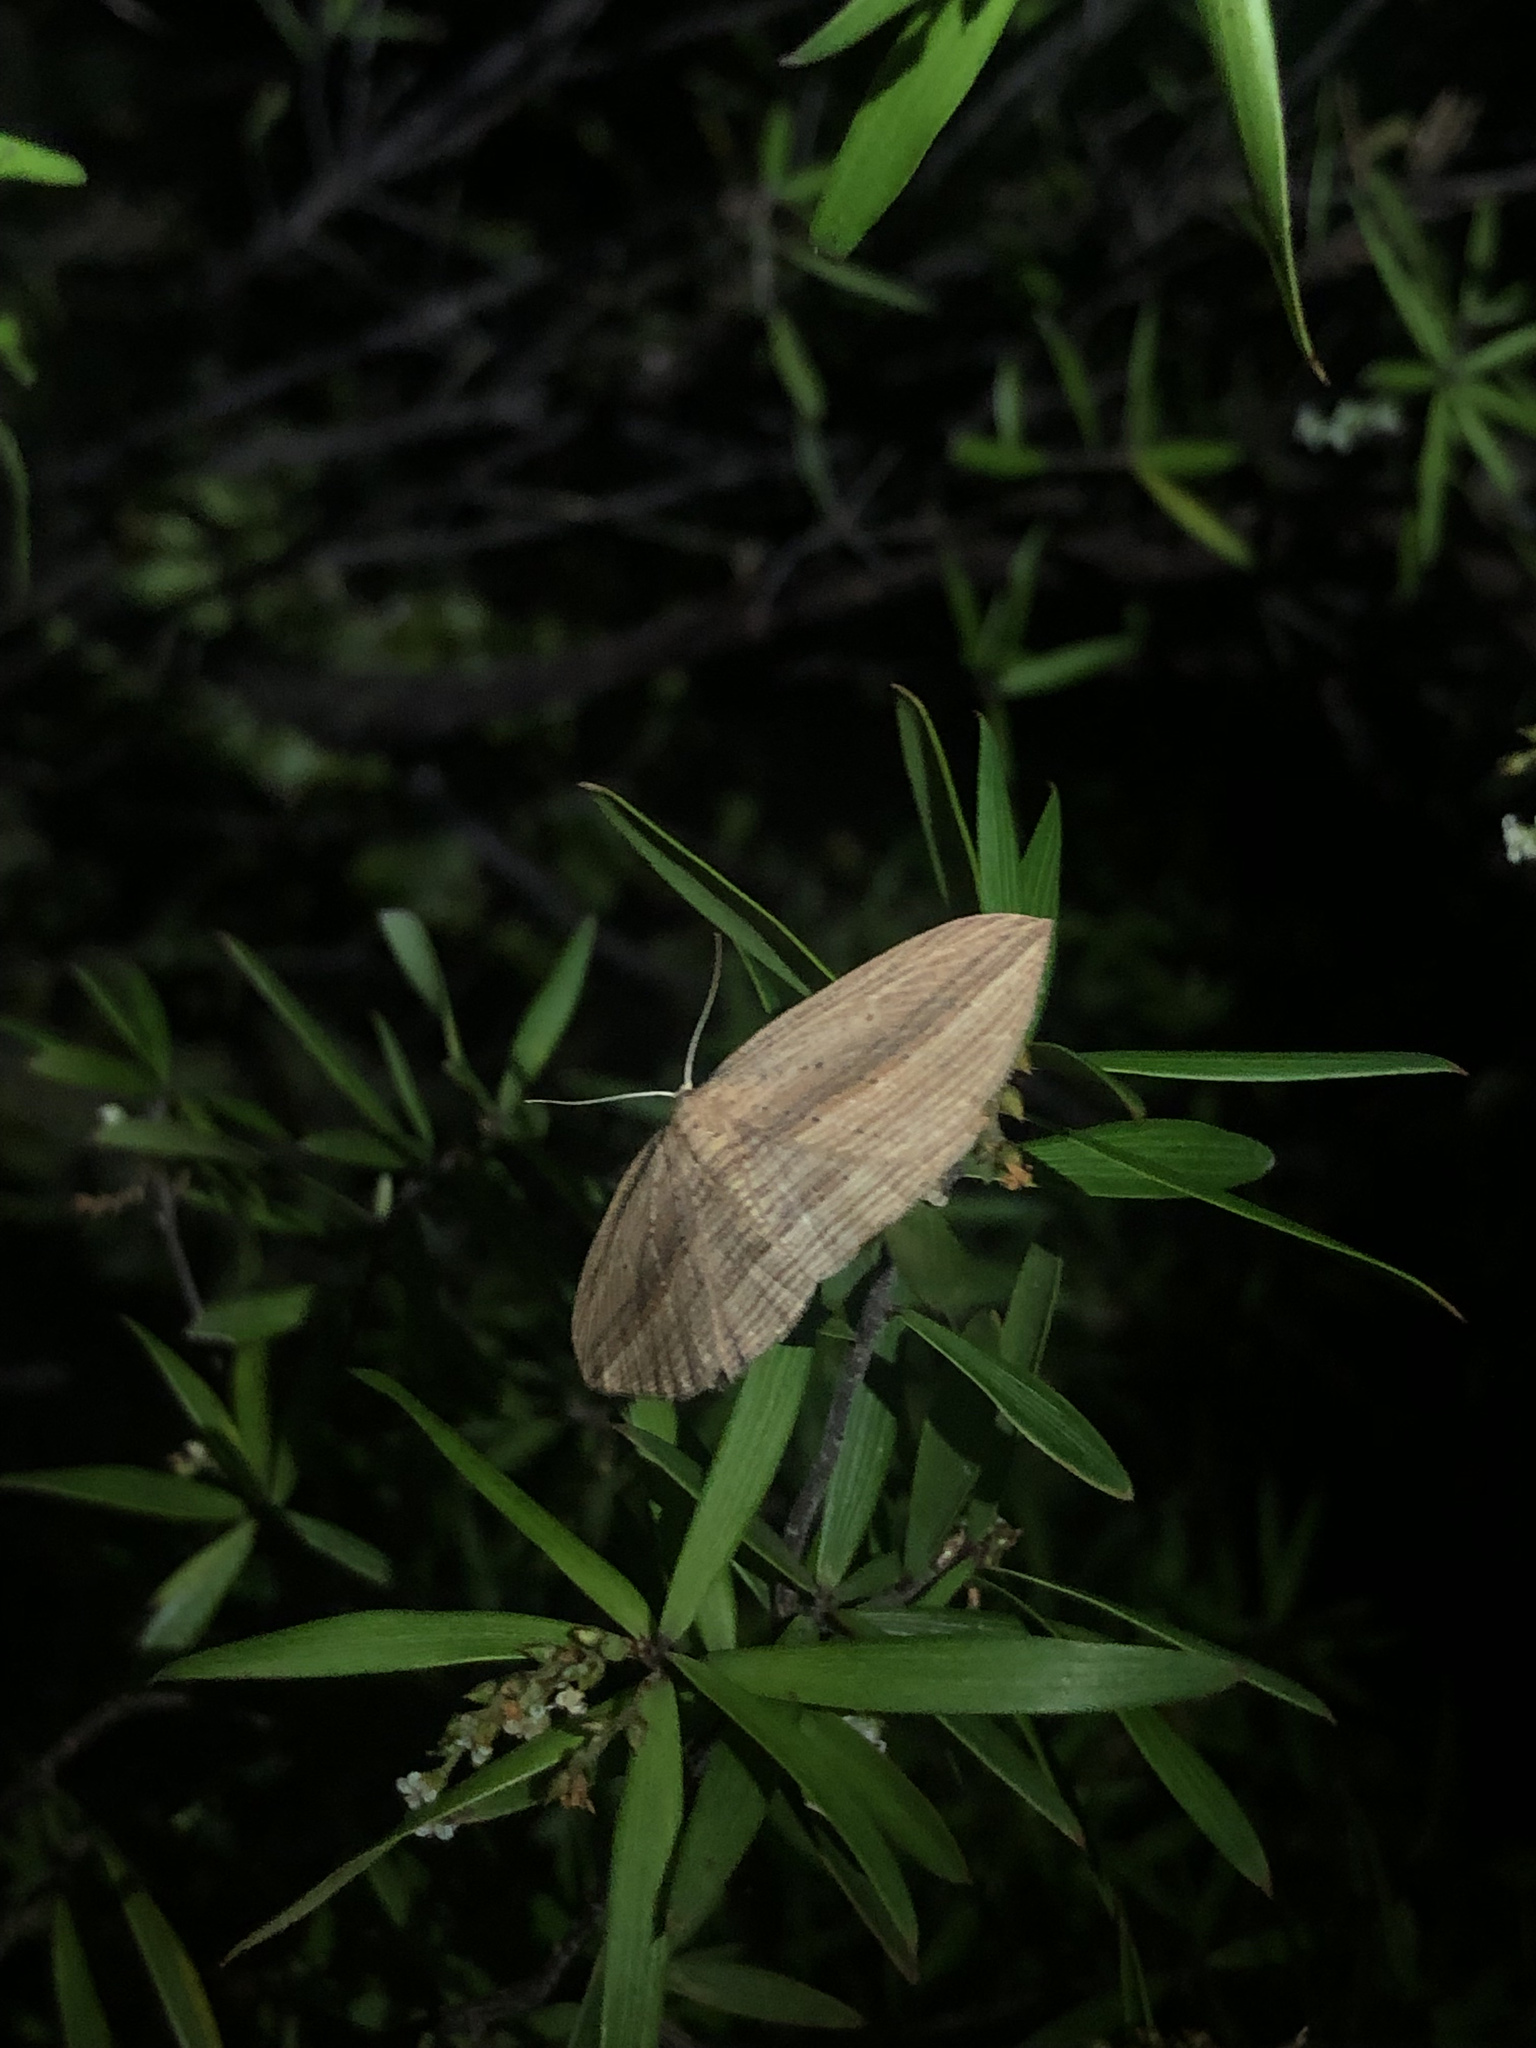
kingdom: Animalia
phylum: Arthropoda
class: Insecta
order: Lepidoptera
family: Geometridae
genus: Epiphryne
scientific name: Epiphryne verriculata
